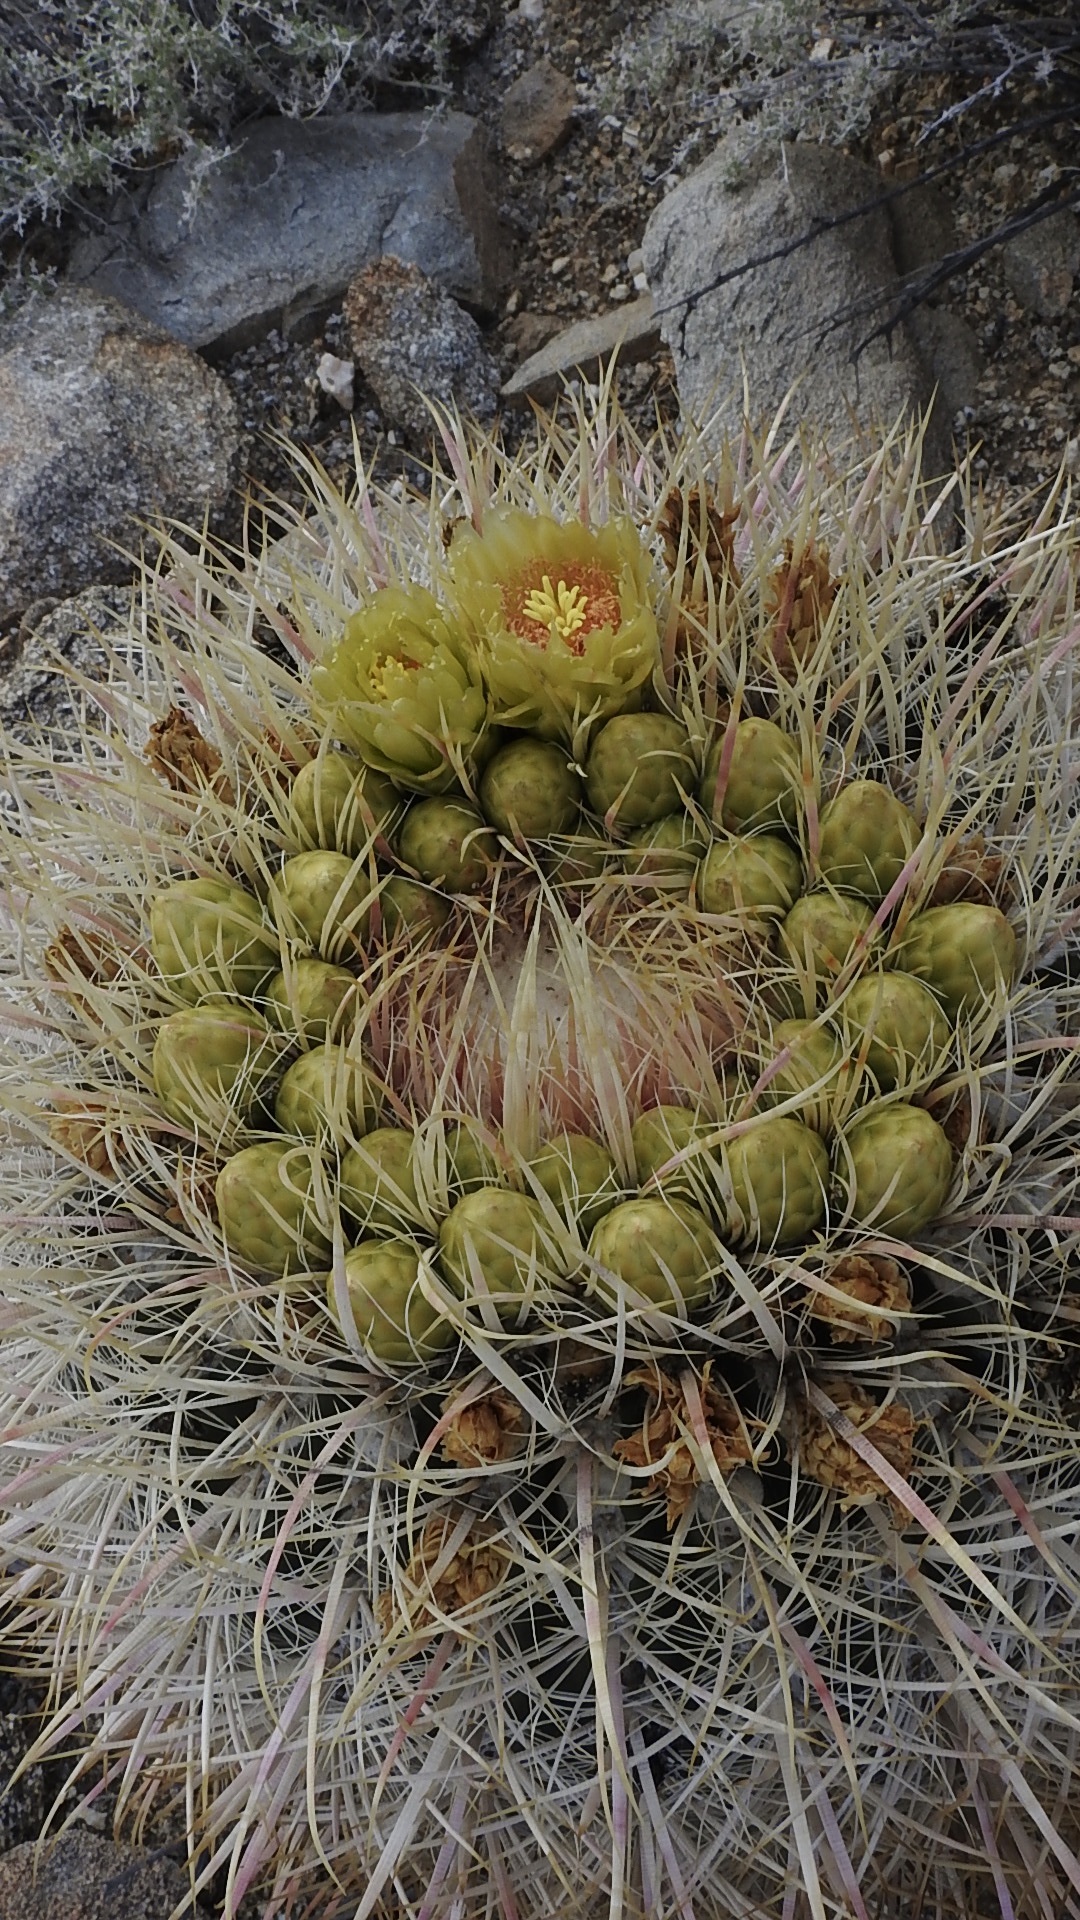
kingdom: Plantae
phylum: Tracheophyta
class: Magnoliopsida
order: Caryophyllales
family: Cactaceae
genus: Ferocactus
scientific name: Ferocactus cylindraceus
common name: California barrel cactus
